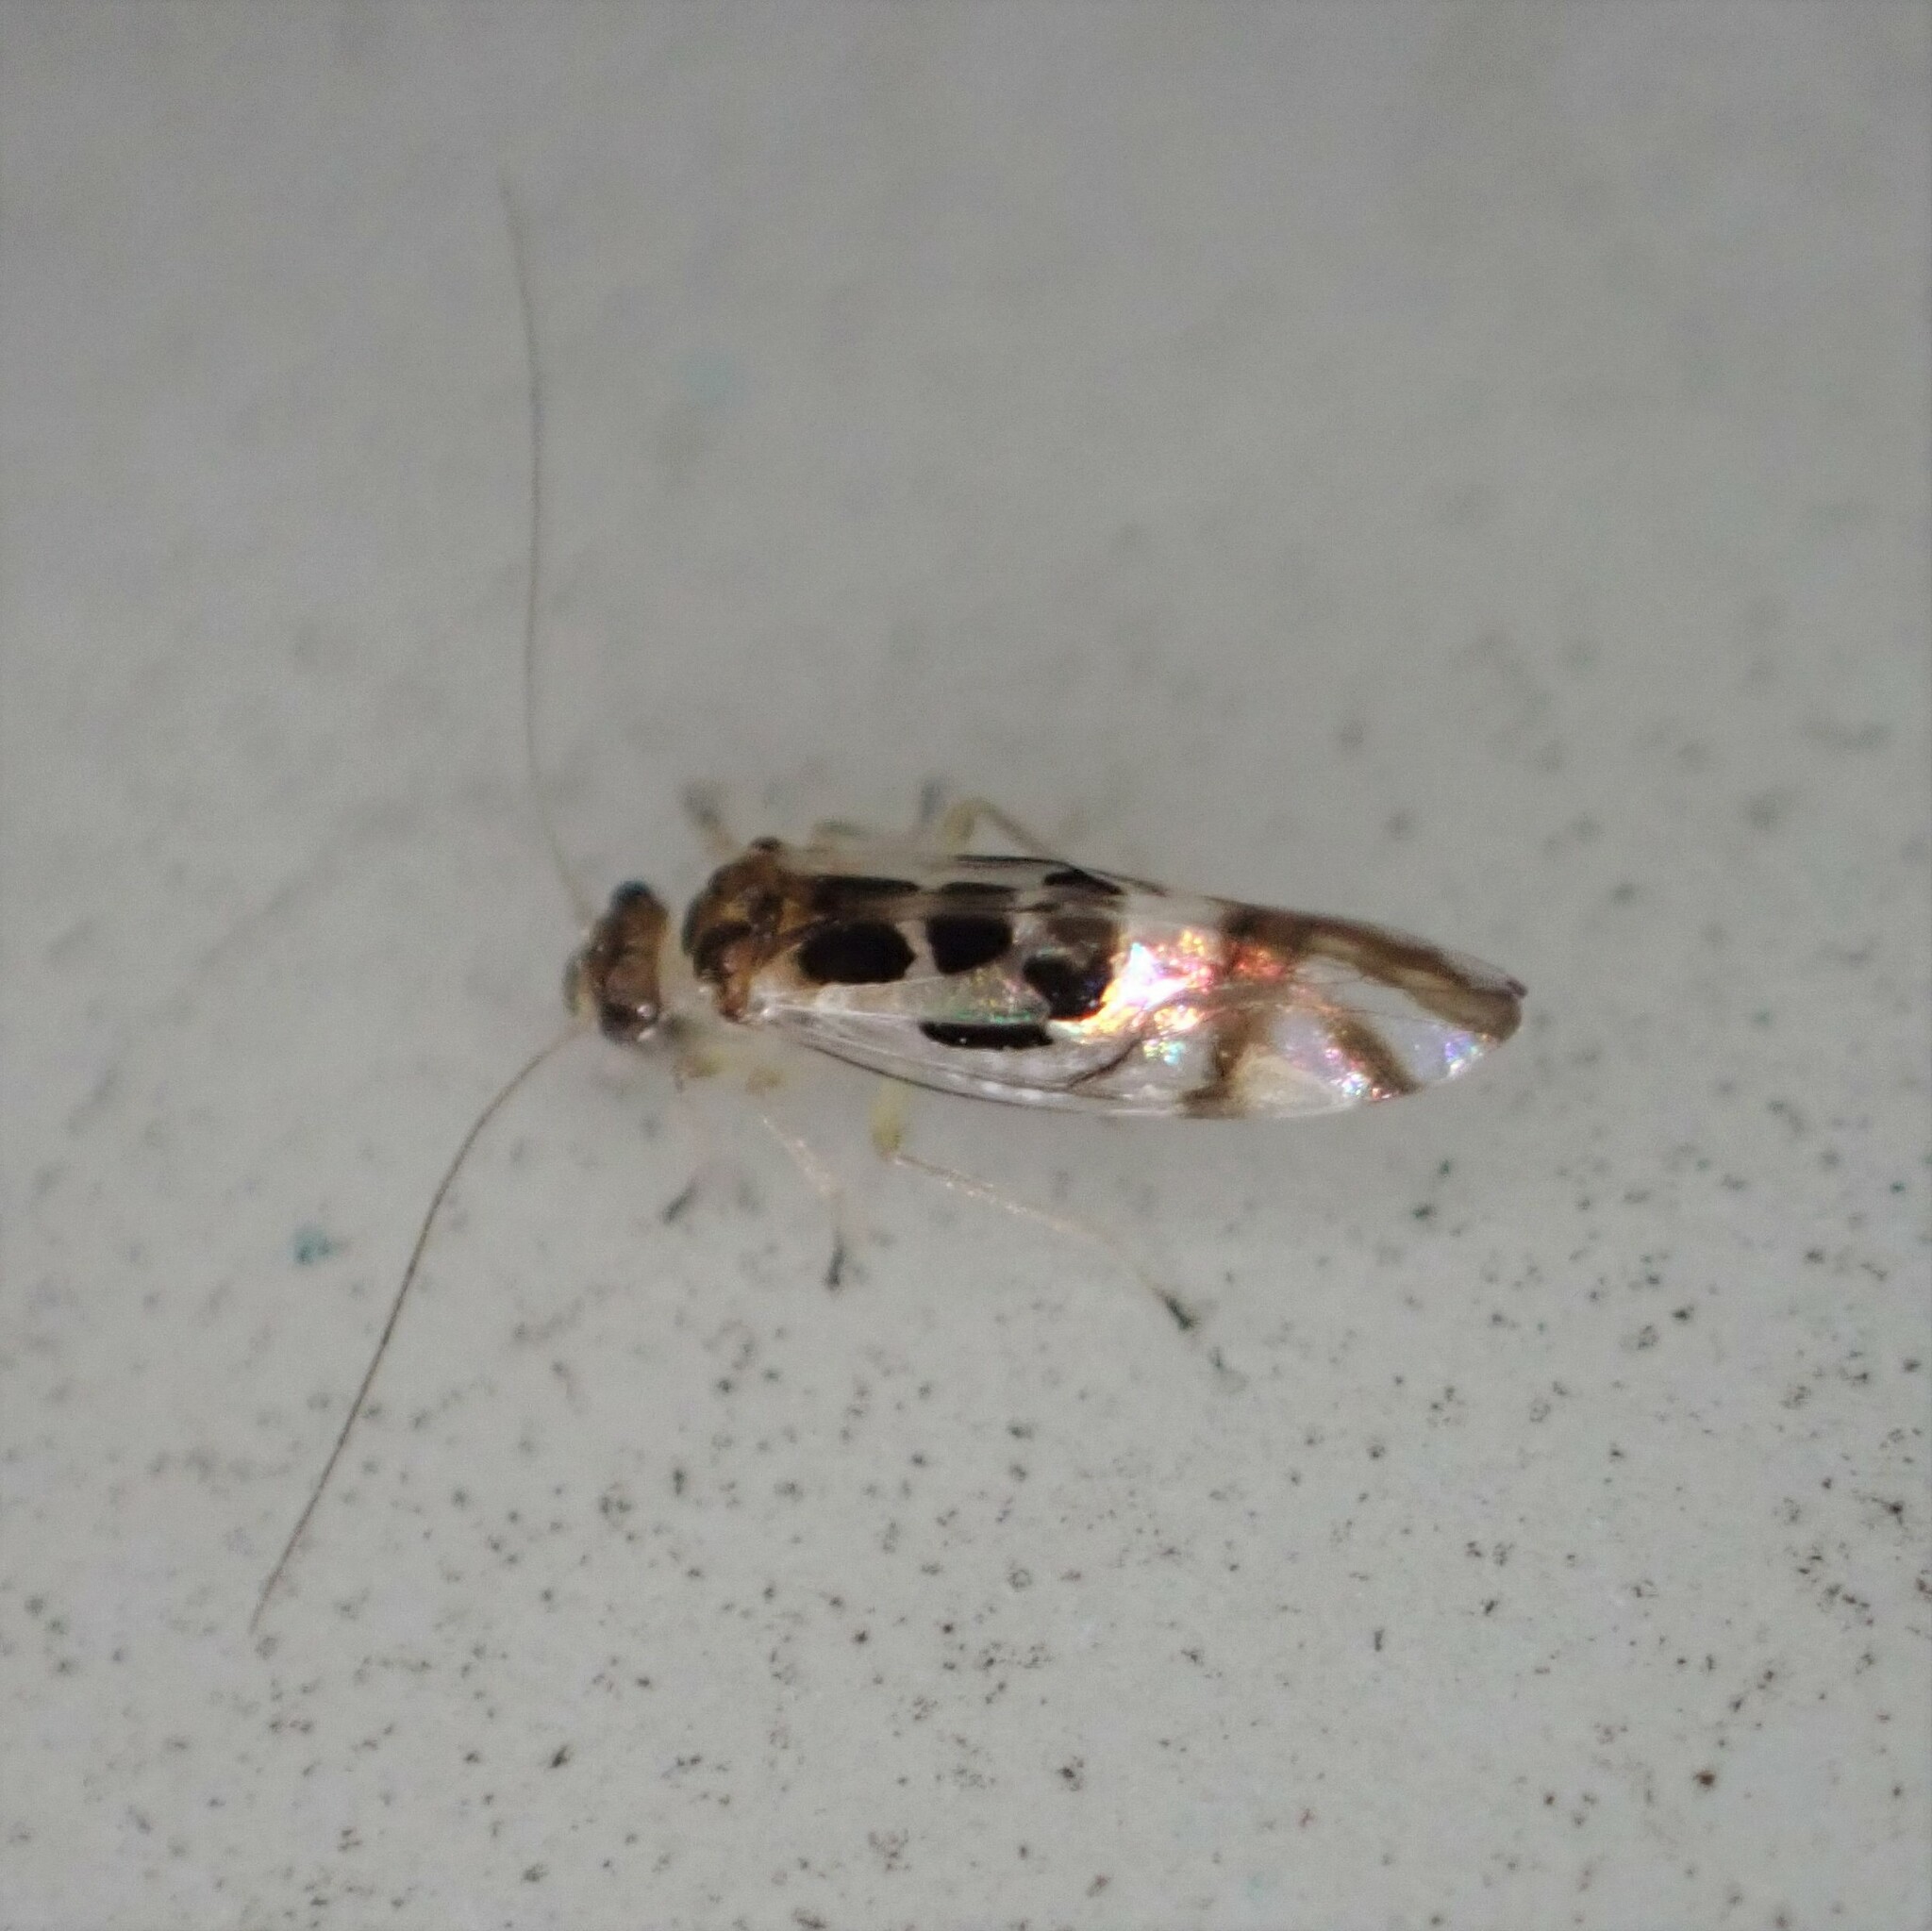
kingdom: Animalia
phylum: Arthropoda
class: Insecta
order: Psocodea
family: Stenopsocidae
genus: Graphopsocus
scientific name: Graphopsocus cruciatus
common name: Lizard bark louse
